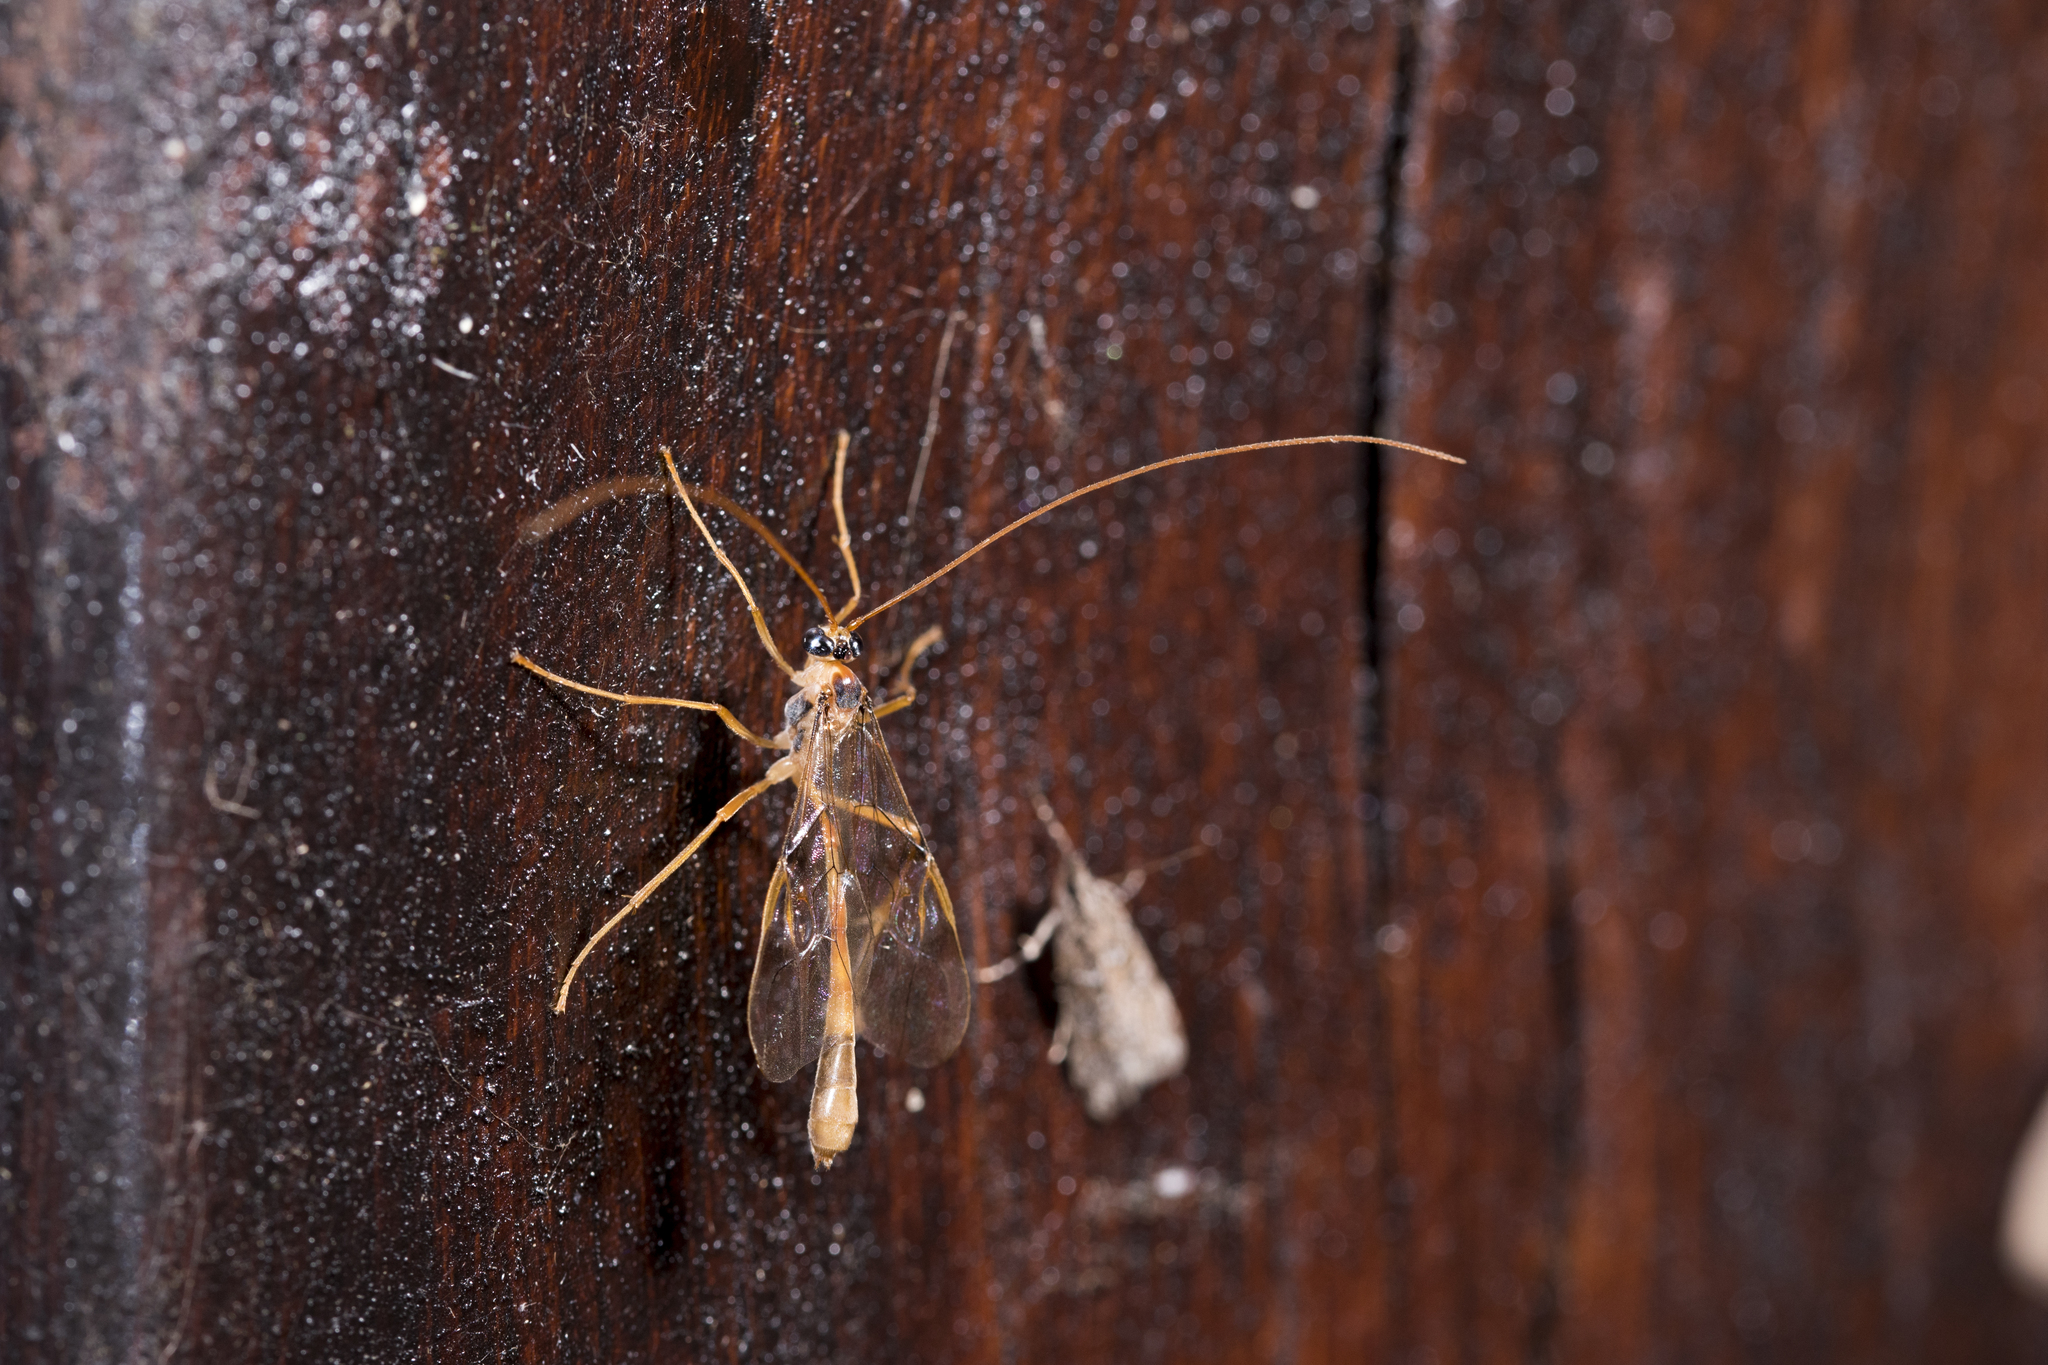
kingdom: Animalia
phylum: Arthropoda
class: Insecta
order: Hymenoptera
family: Ichneumonidae
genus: Enicospilus
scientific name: Enicospilus bifasciatus
